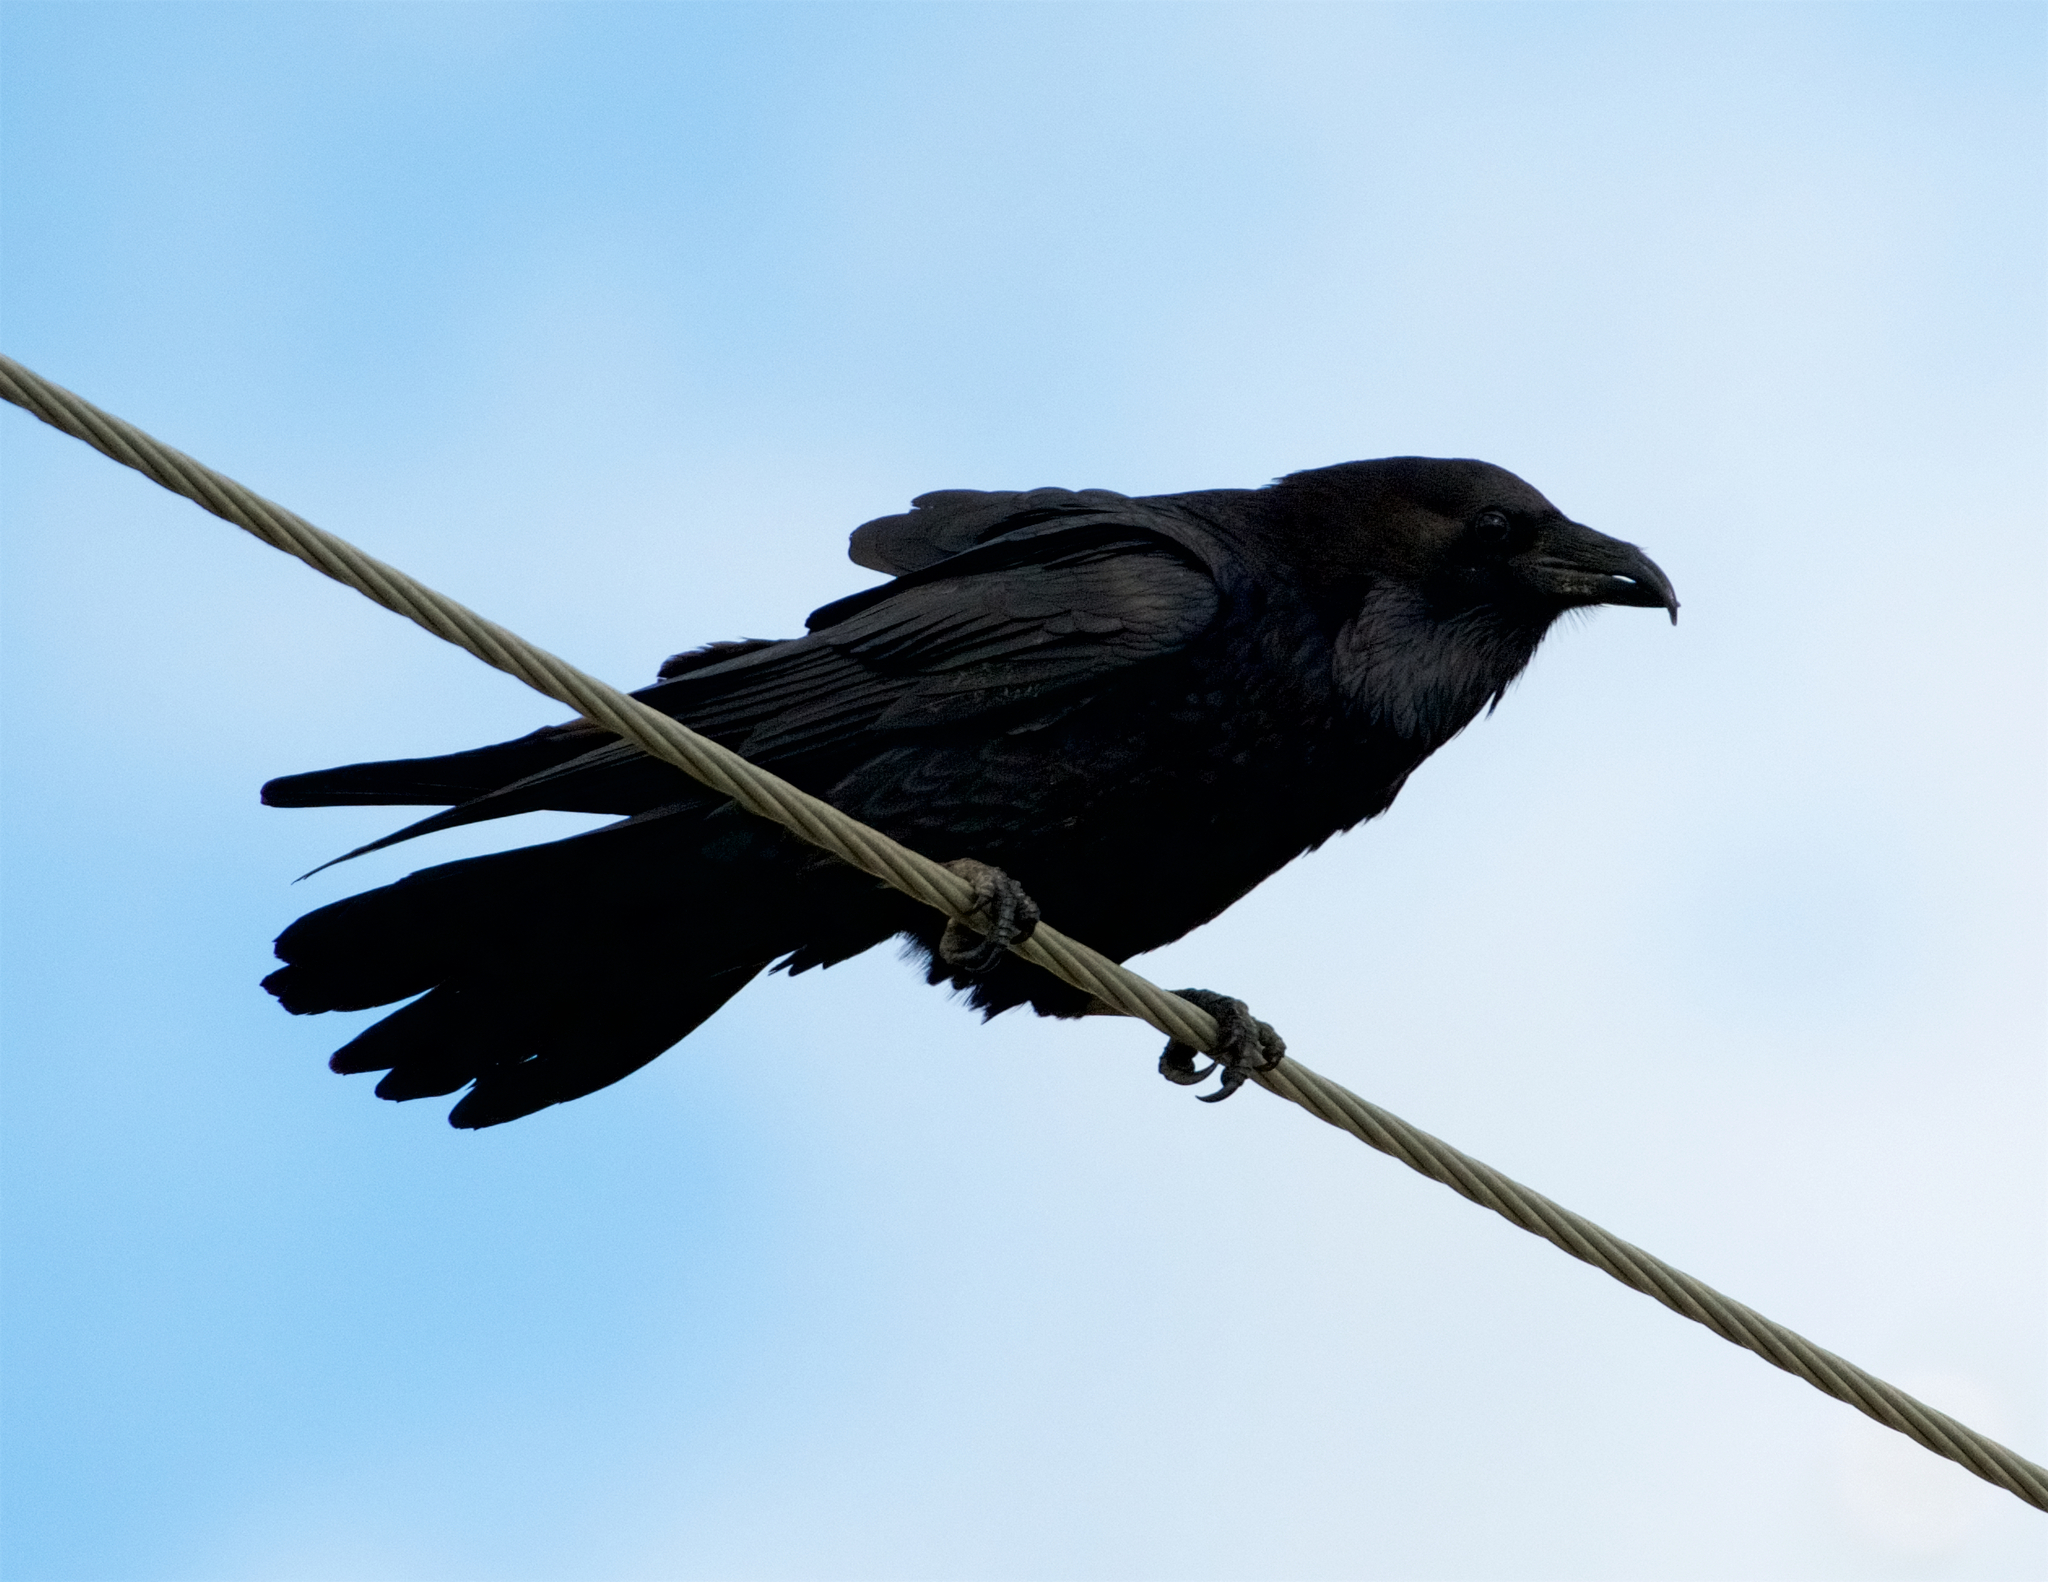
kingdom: Animalia
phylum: Chordata
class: Aves
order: Passeriformes
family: Corvidae
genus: Corvus
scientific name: Corvus corax
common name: Common raven
